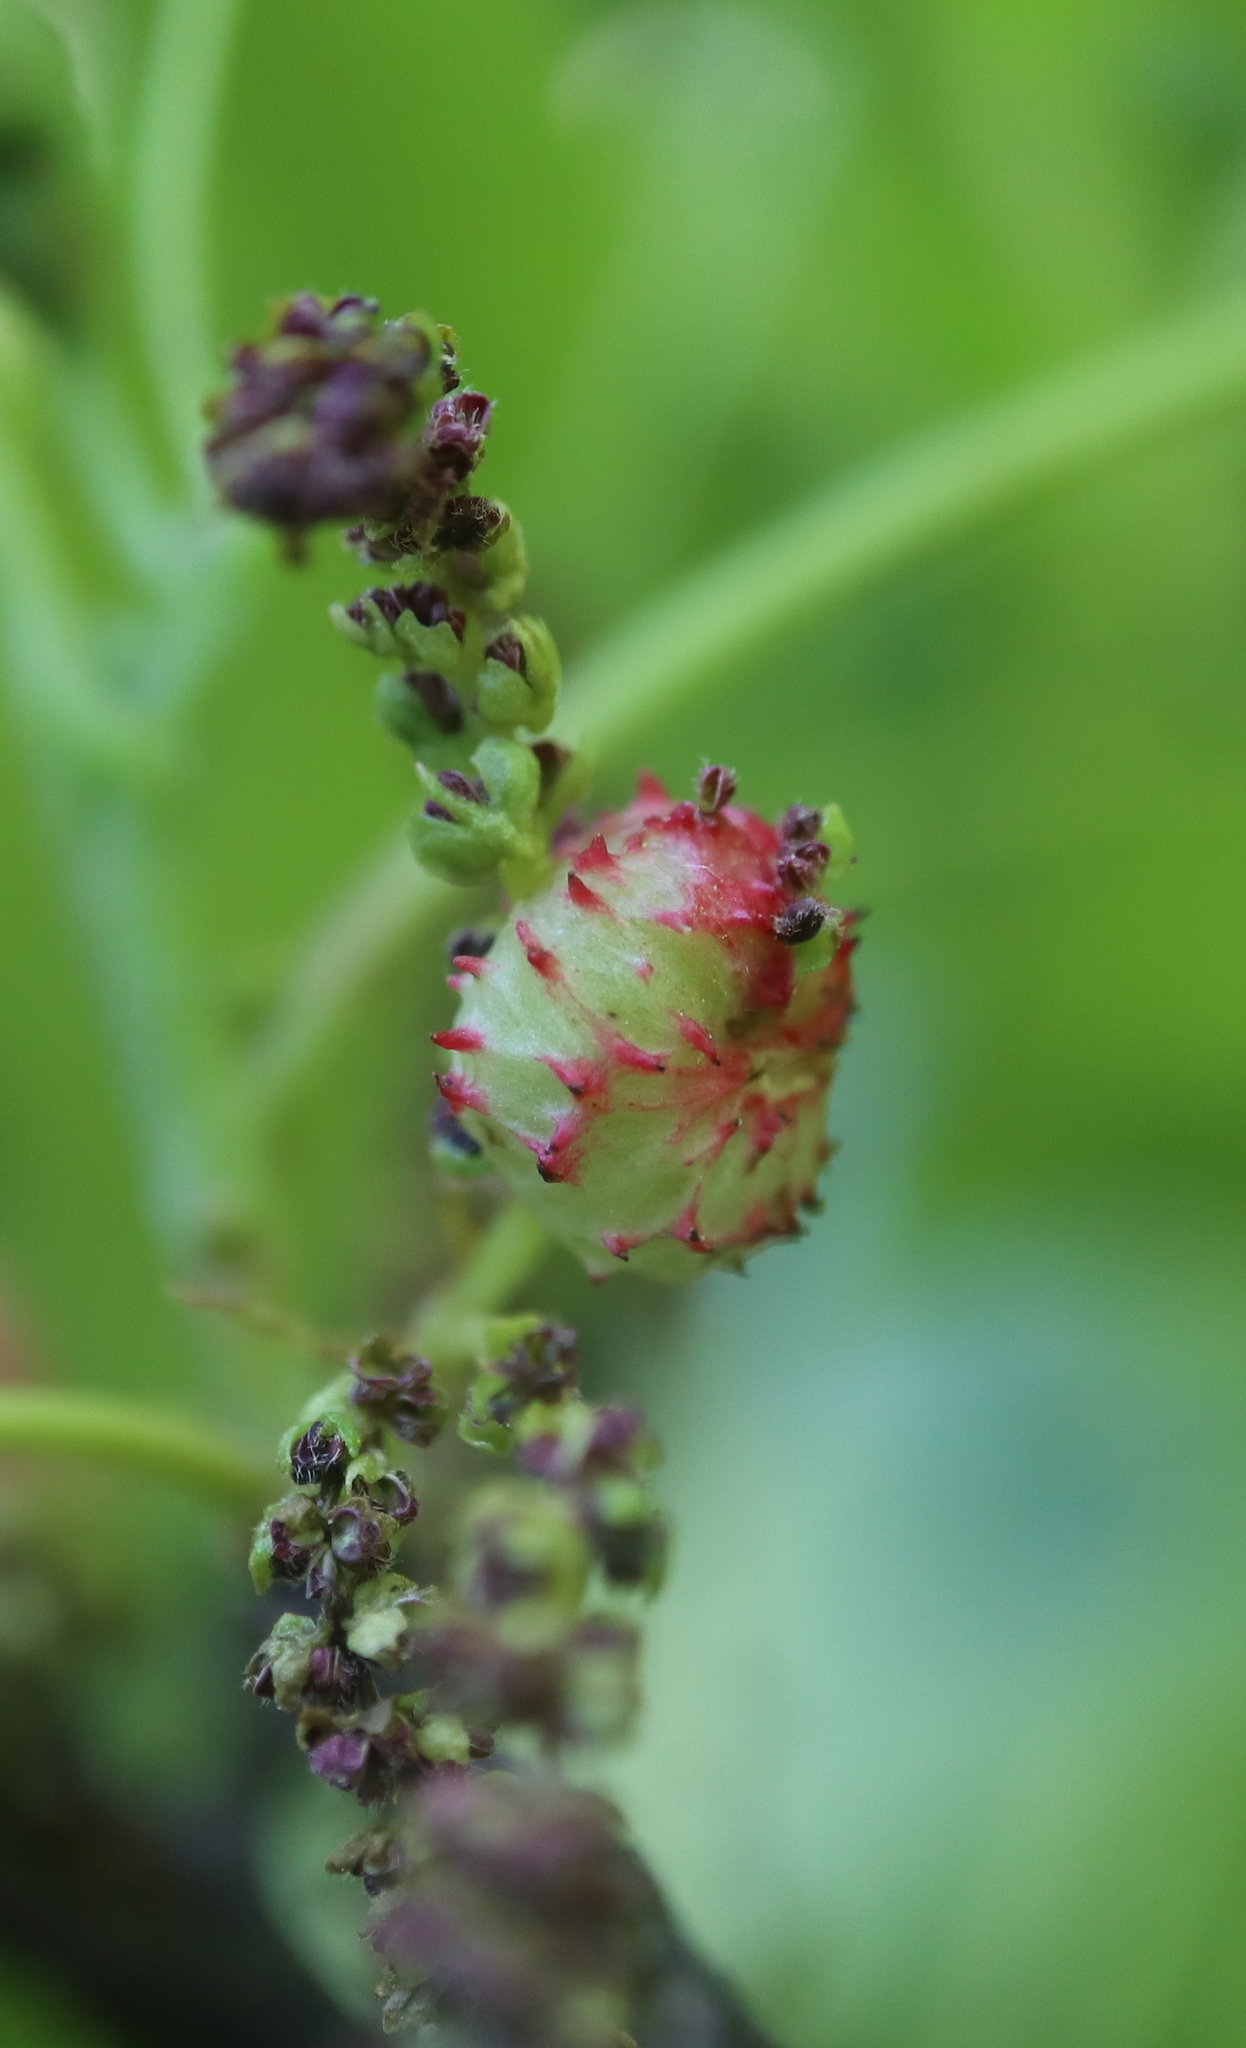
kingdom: Animalia
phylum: Arthropoda
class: Insecta
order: Hemiptera
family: Phylloxeridae
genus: Phylloxera
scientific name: Phylloxera spinosa
